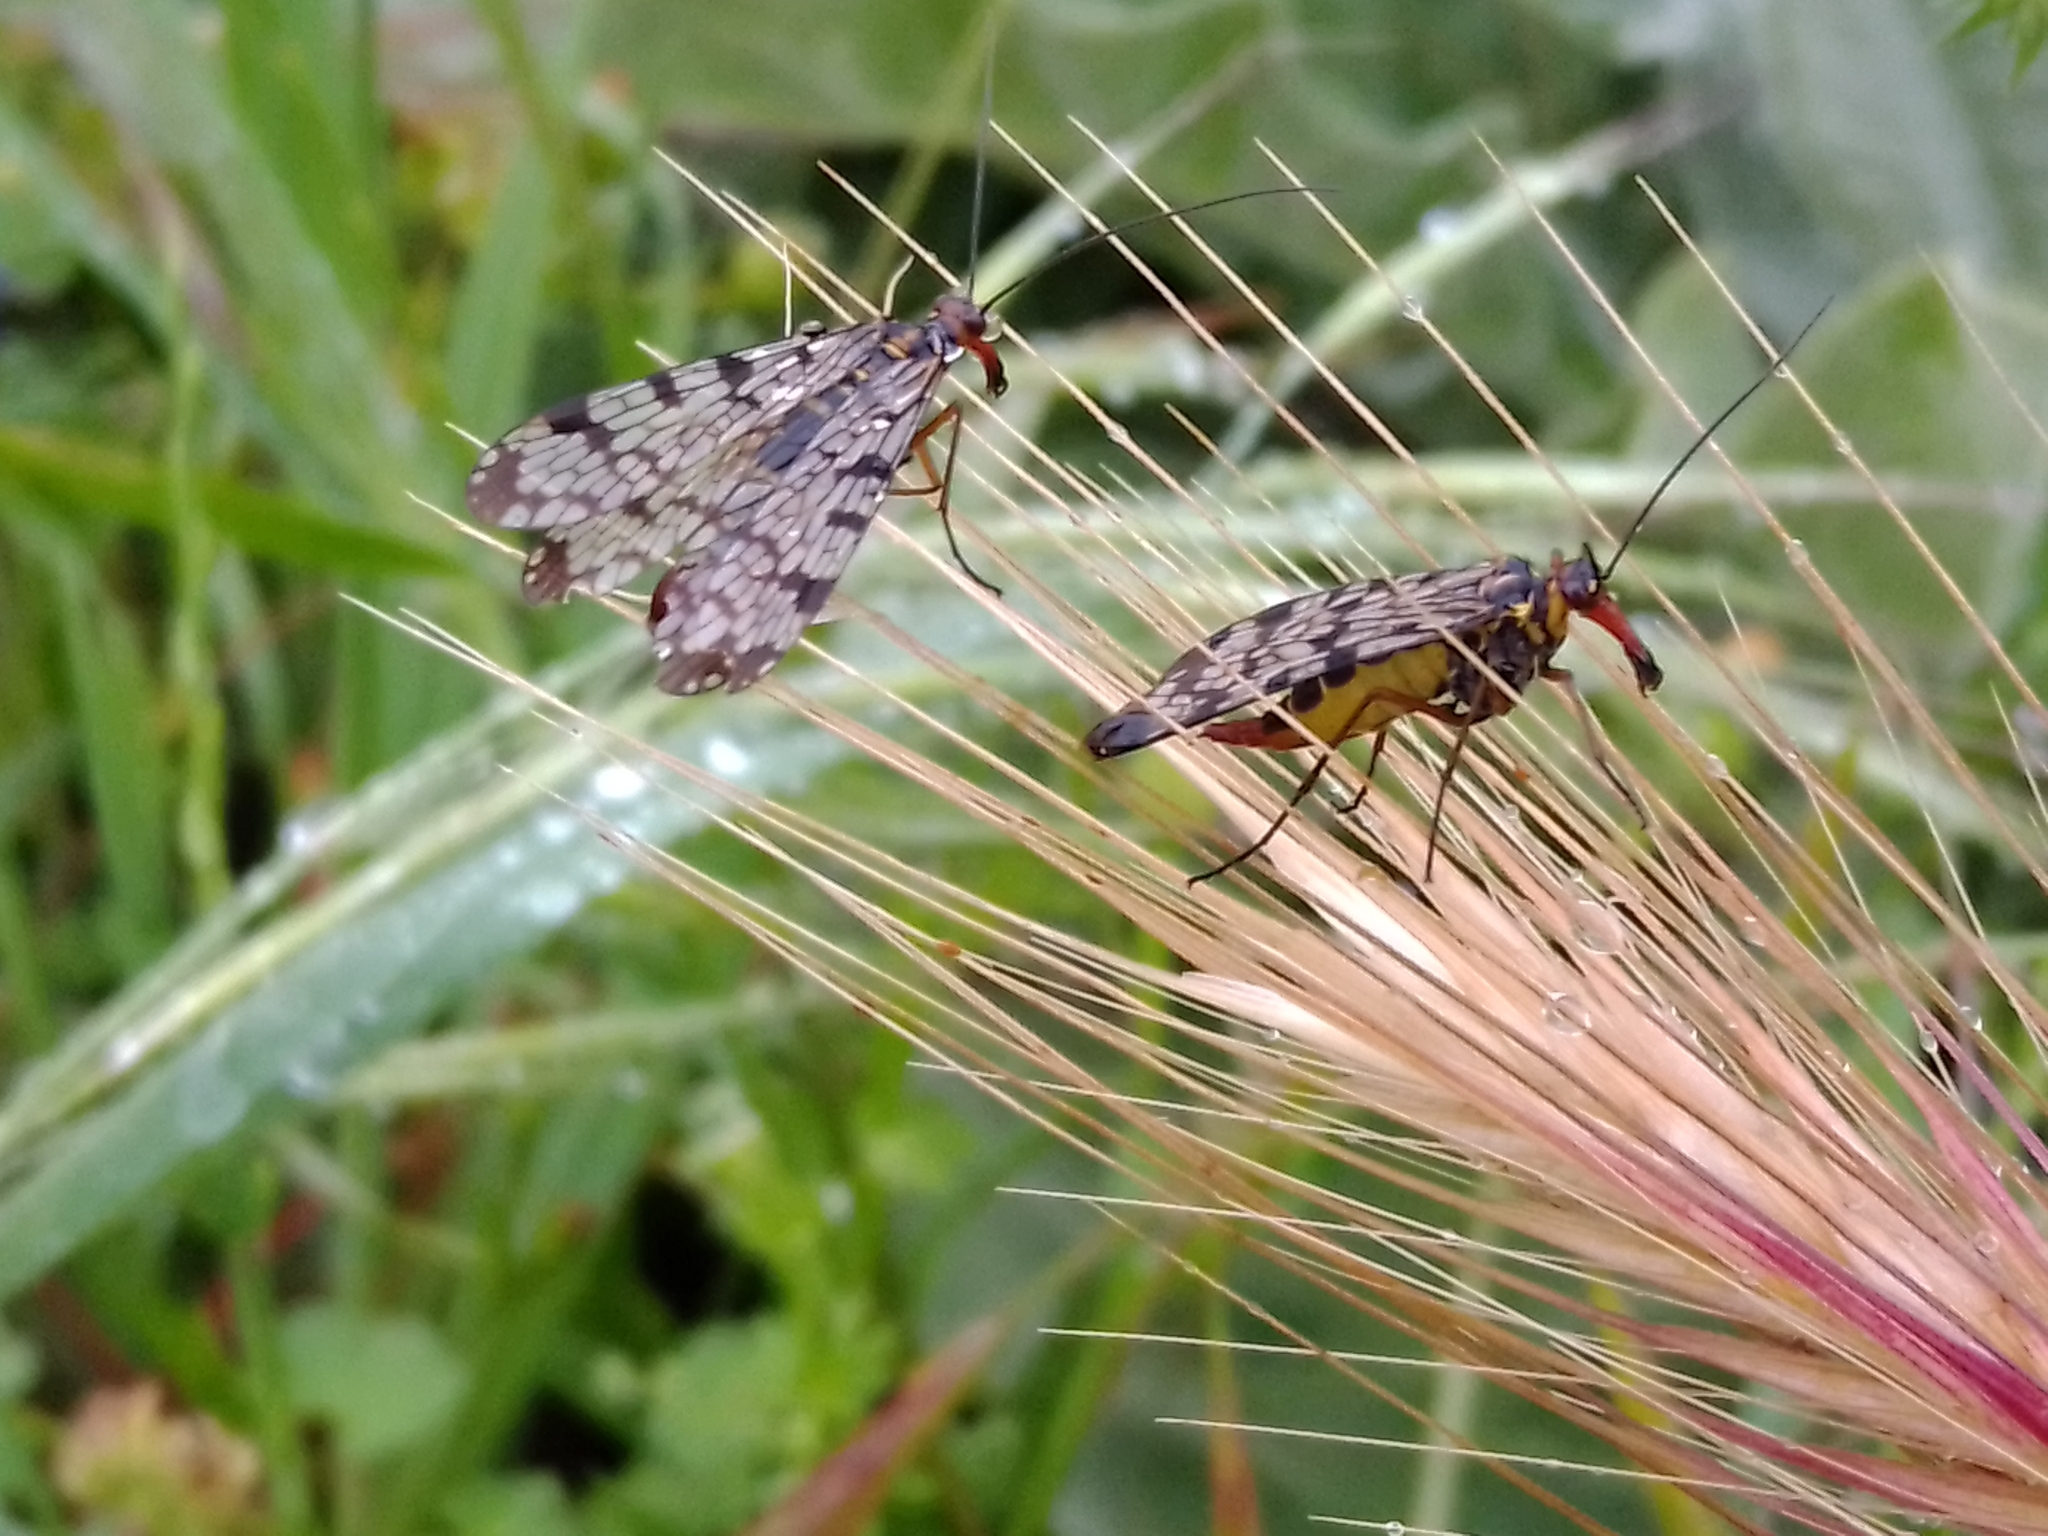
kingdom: Animalia
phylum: Arthropoda
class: Insecta
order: Mecoptera
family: Panorpidae
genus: Panorpa
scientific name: Panorpa meridionalis
